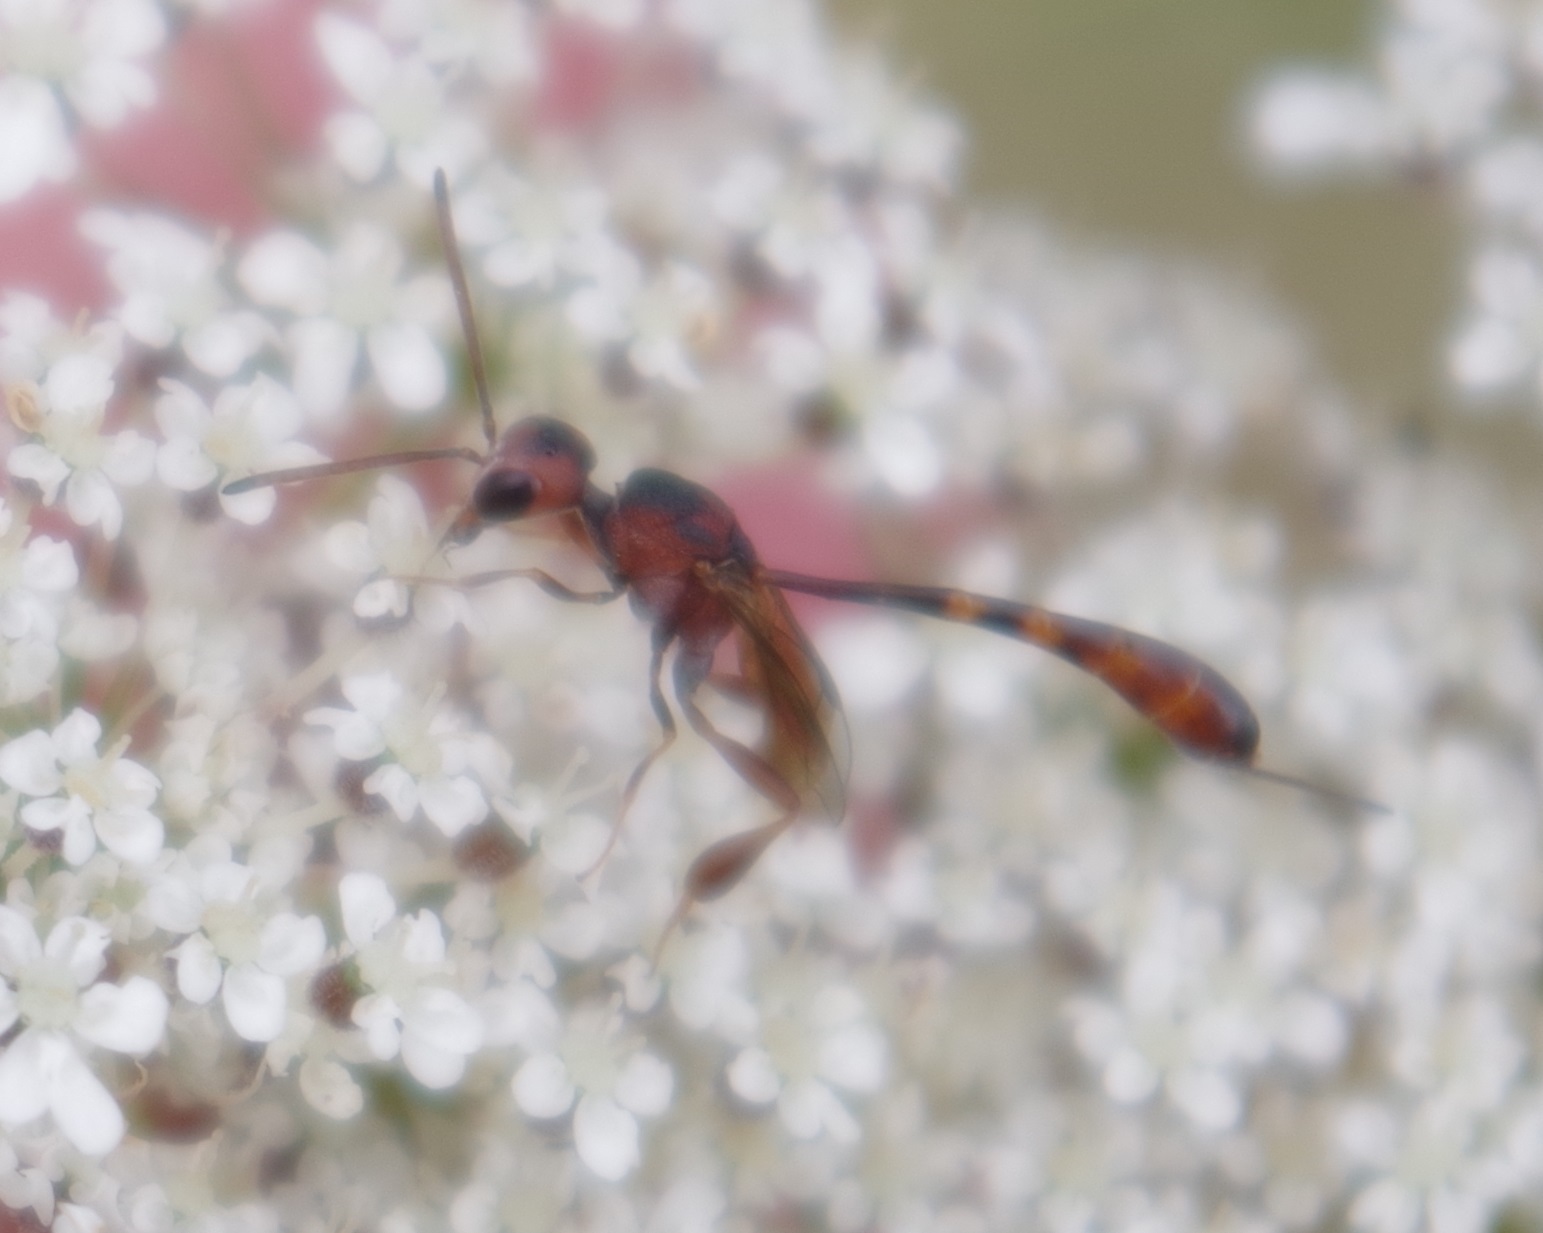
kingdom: Animalia
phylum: Arthropoda
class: Insecta
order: Hymenoptera
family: Gasteruptiidae
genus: Gasteruption
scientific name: Gasteruption hastator
